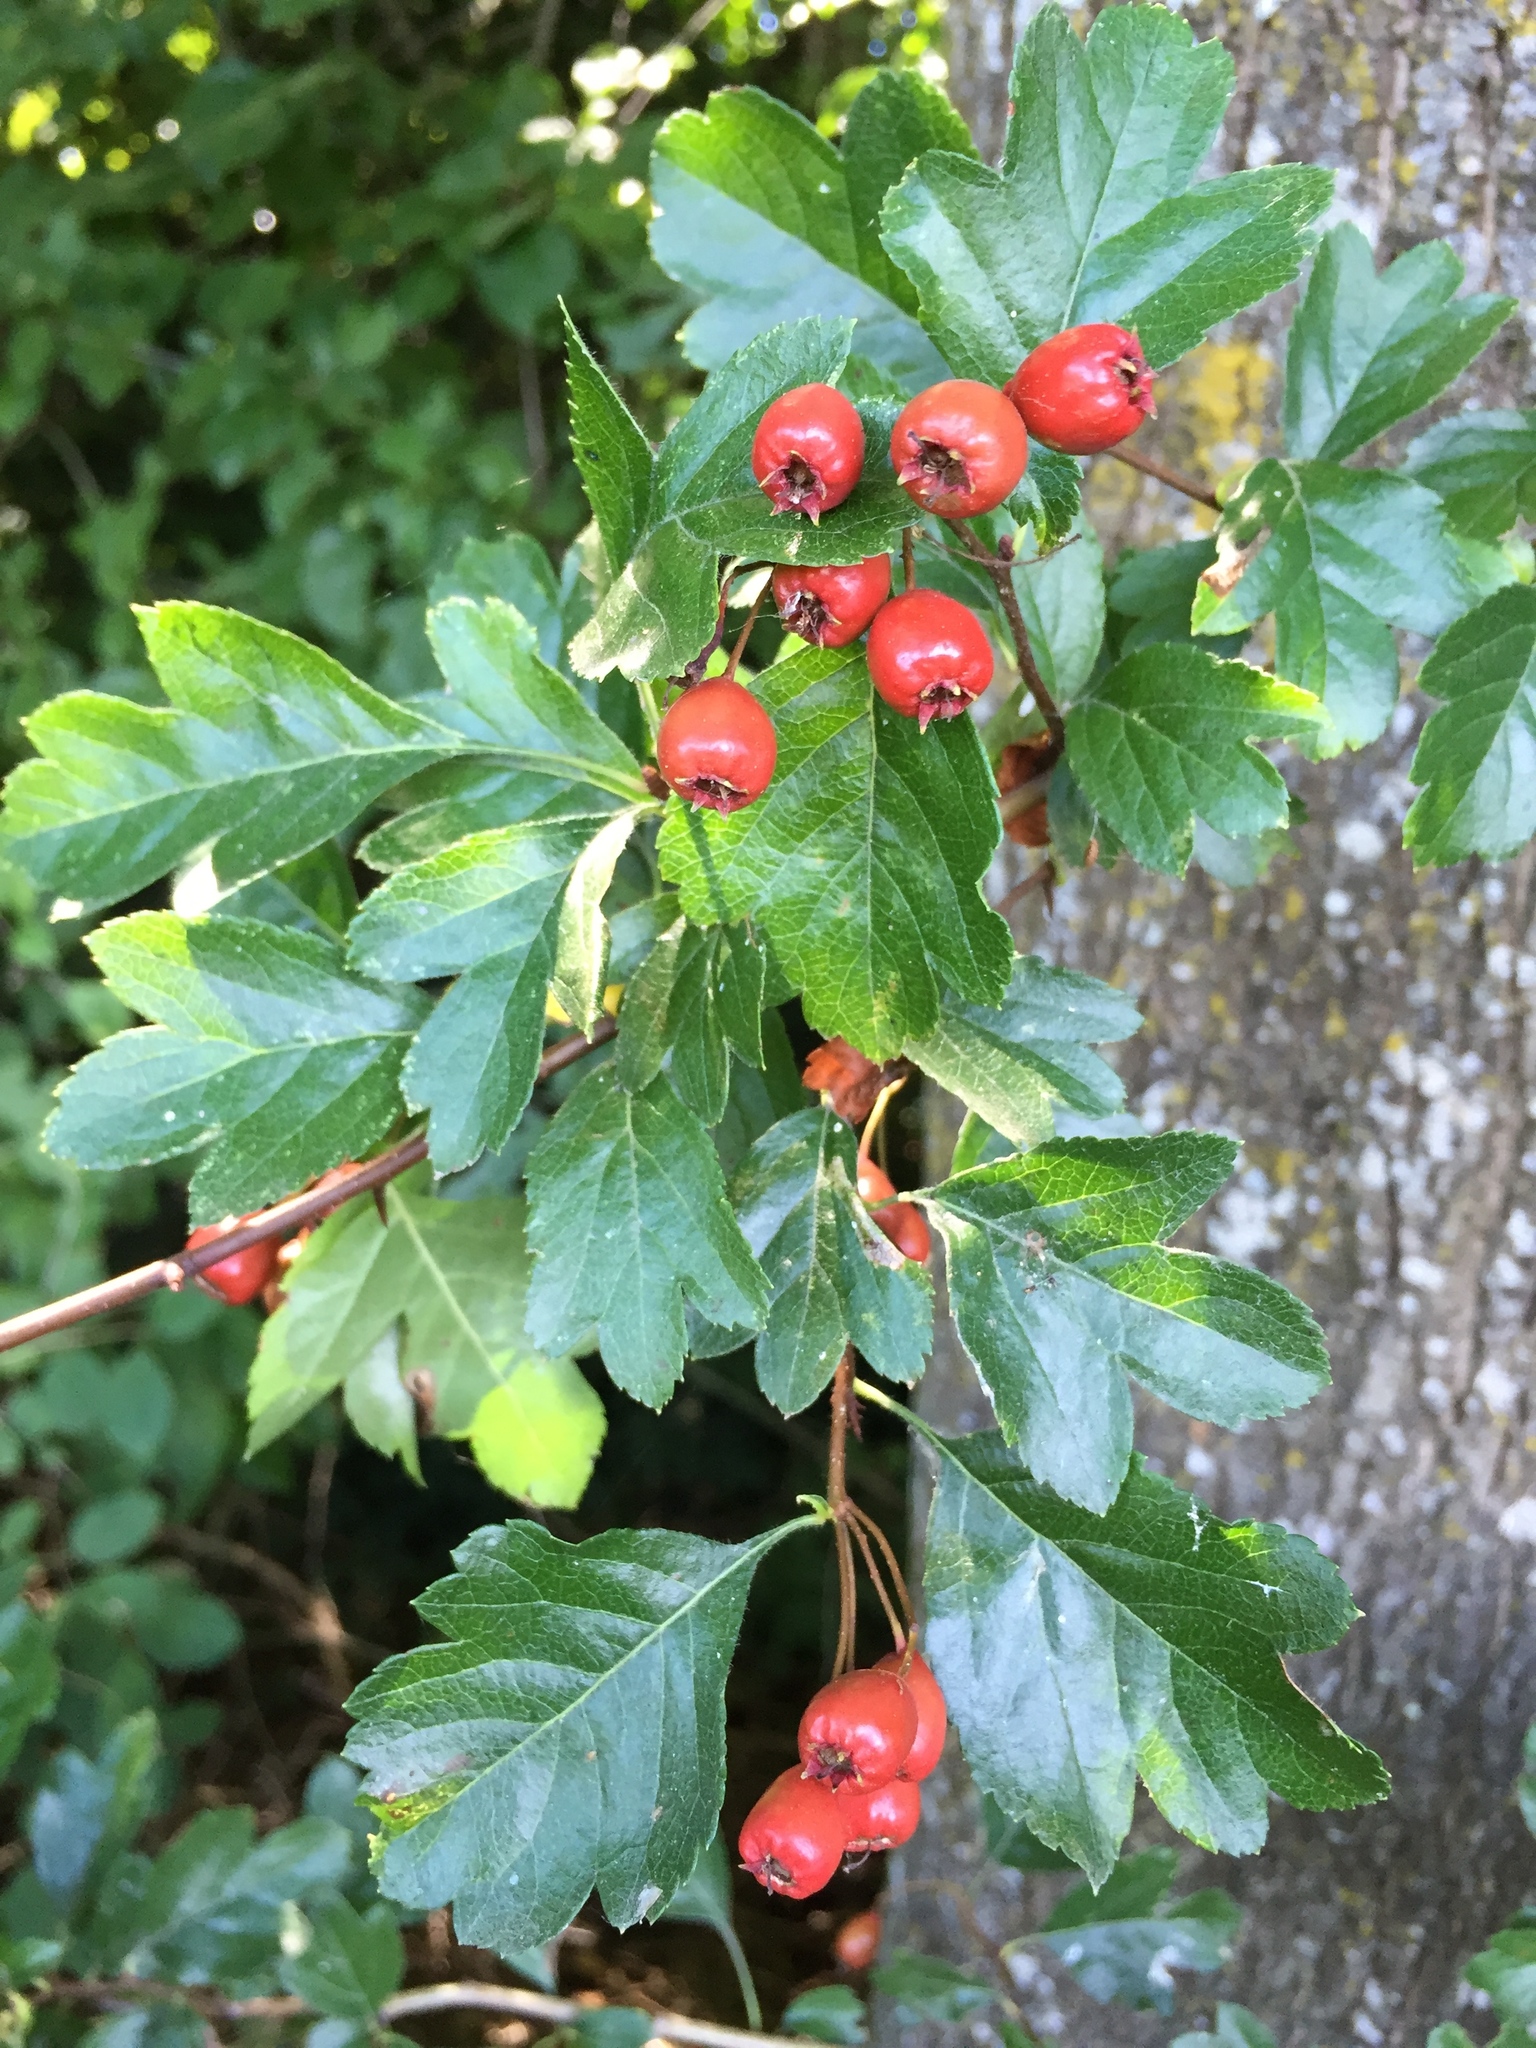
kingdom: Plantae
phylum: Tracheophyta
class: Magnoliopsida
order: Rosales
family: Rosaceae
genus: Crataegus
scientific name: Crataegus monogyna
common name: Hawthorn
